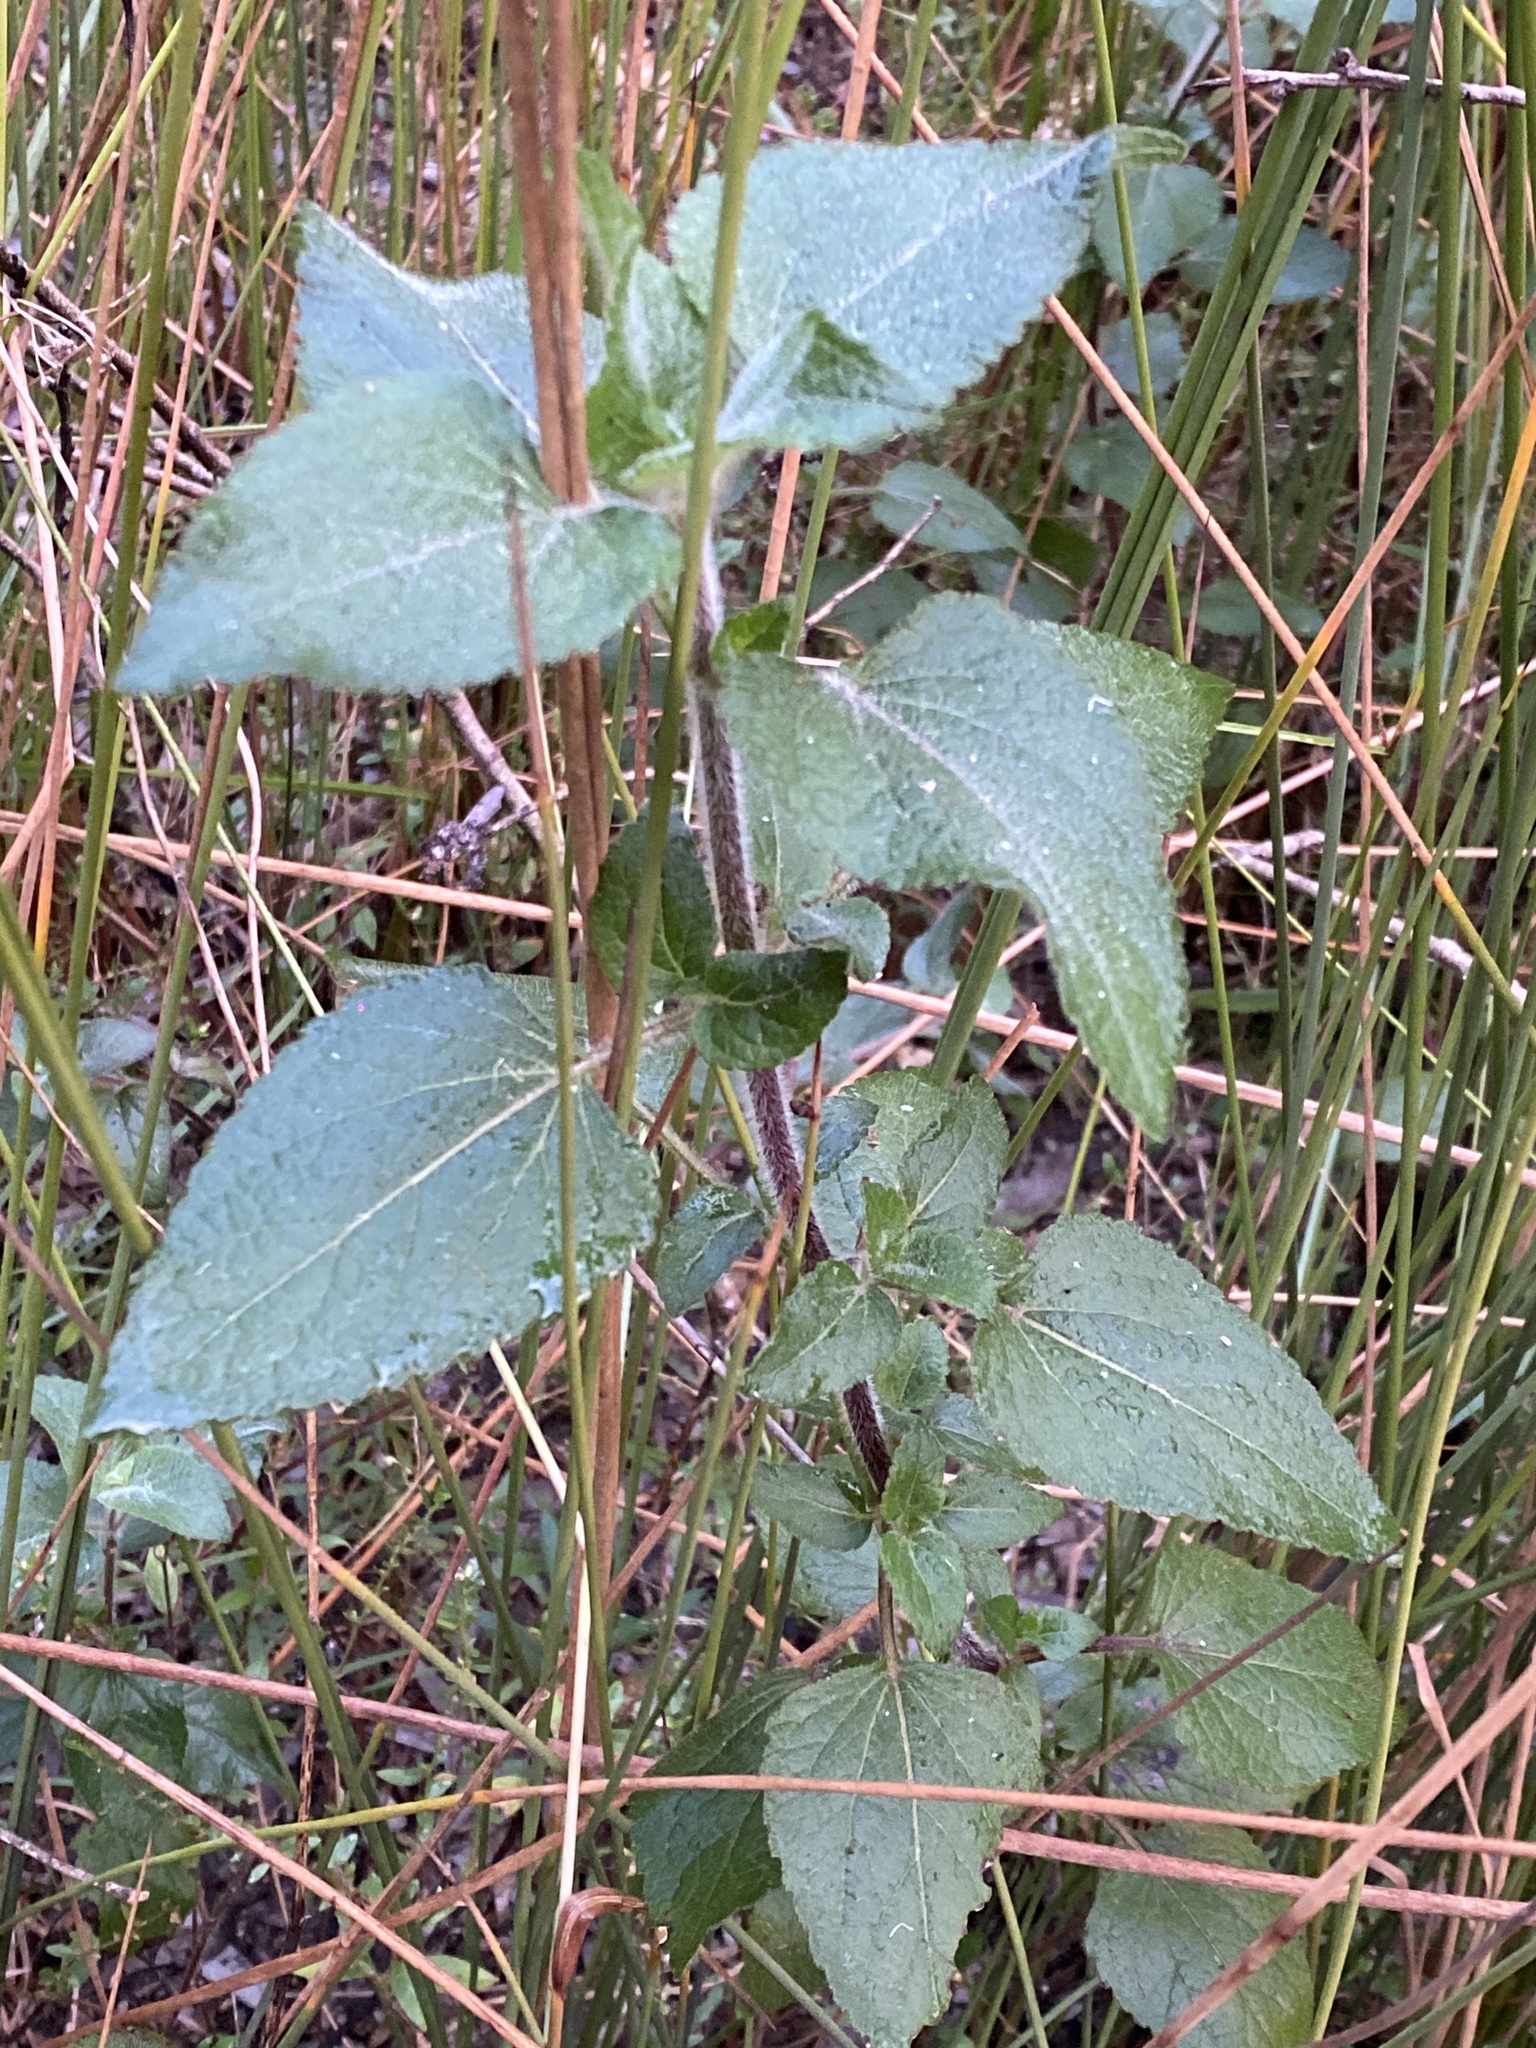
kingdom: Plantae
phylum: Tracheophyta
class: Magnoliopsida
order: Asterales
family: Asteraceae
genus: Ageratum
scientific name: Ageratum houstonianum
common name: Bluemink
